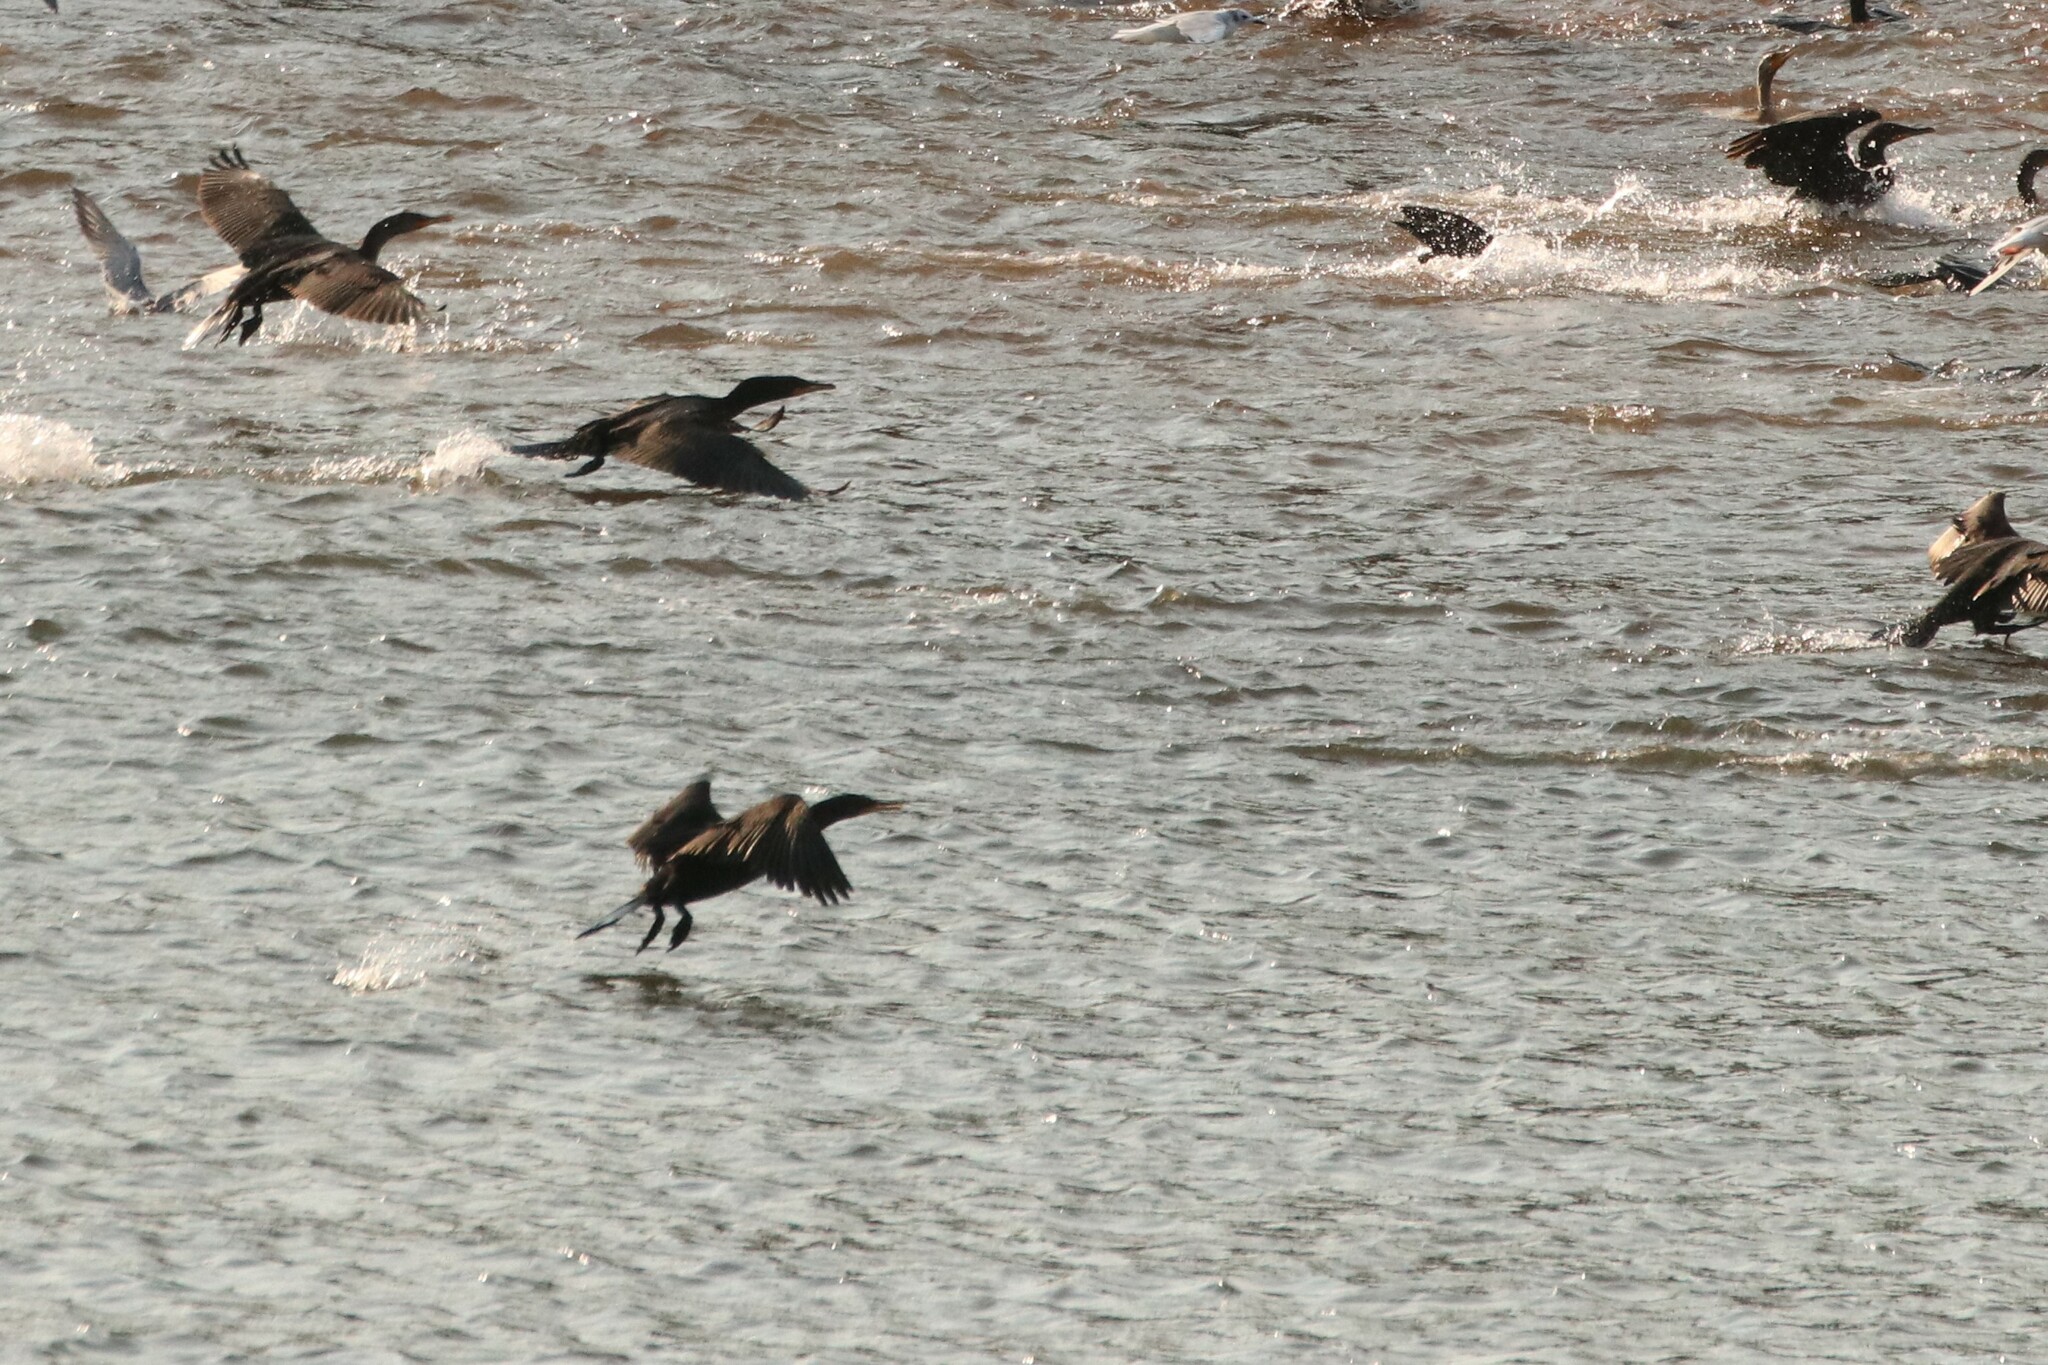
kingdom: Animalia
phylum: Chordata
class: Aves
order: Suliformes
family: Phalacrocoracidae
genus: Phalacrocorax
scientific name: Phalacrocorax auritus
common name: Double-crested cormorant
